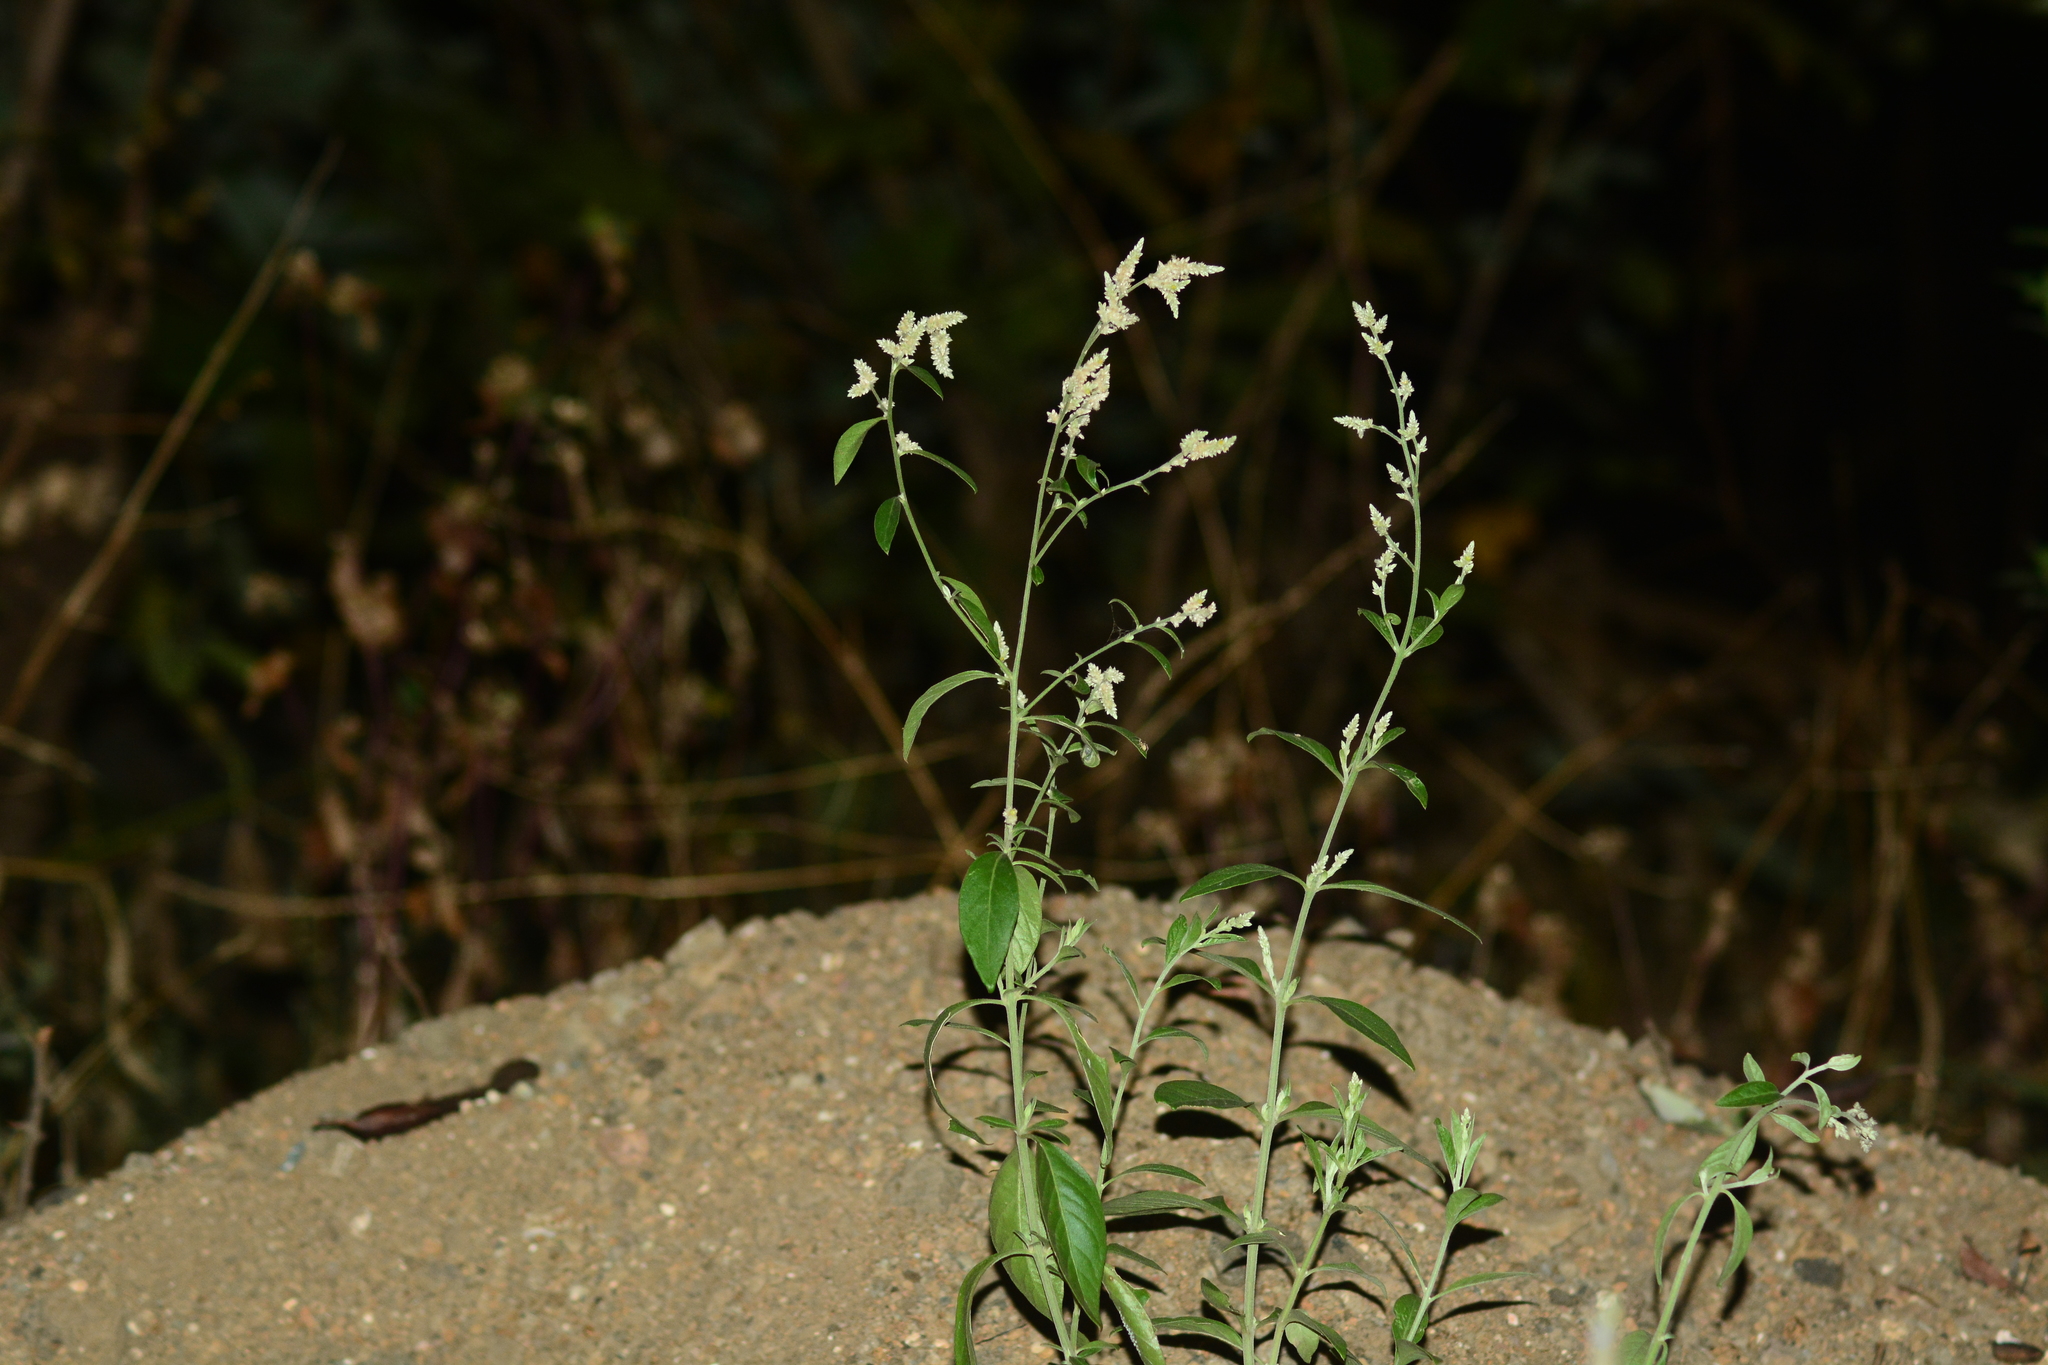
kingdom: Plantae
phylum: Tracheophyta
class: Magnoliopsida
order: Caryophyllales
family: Amaranthaceae
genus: Ouret
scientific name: Ouret sanguinolenta
